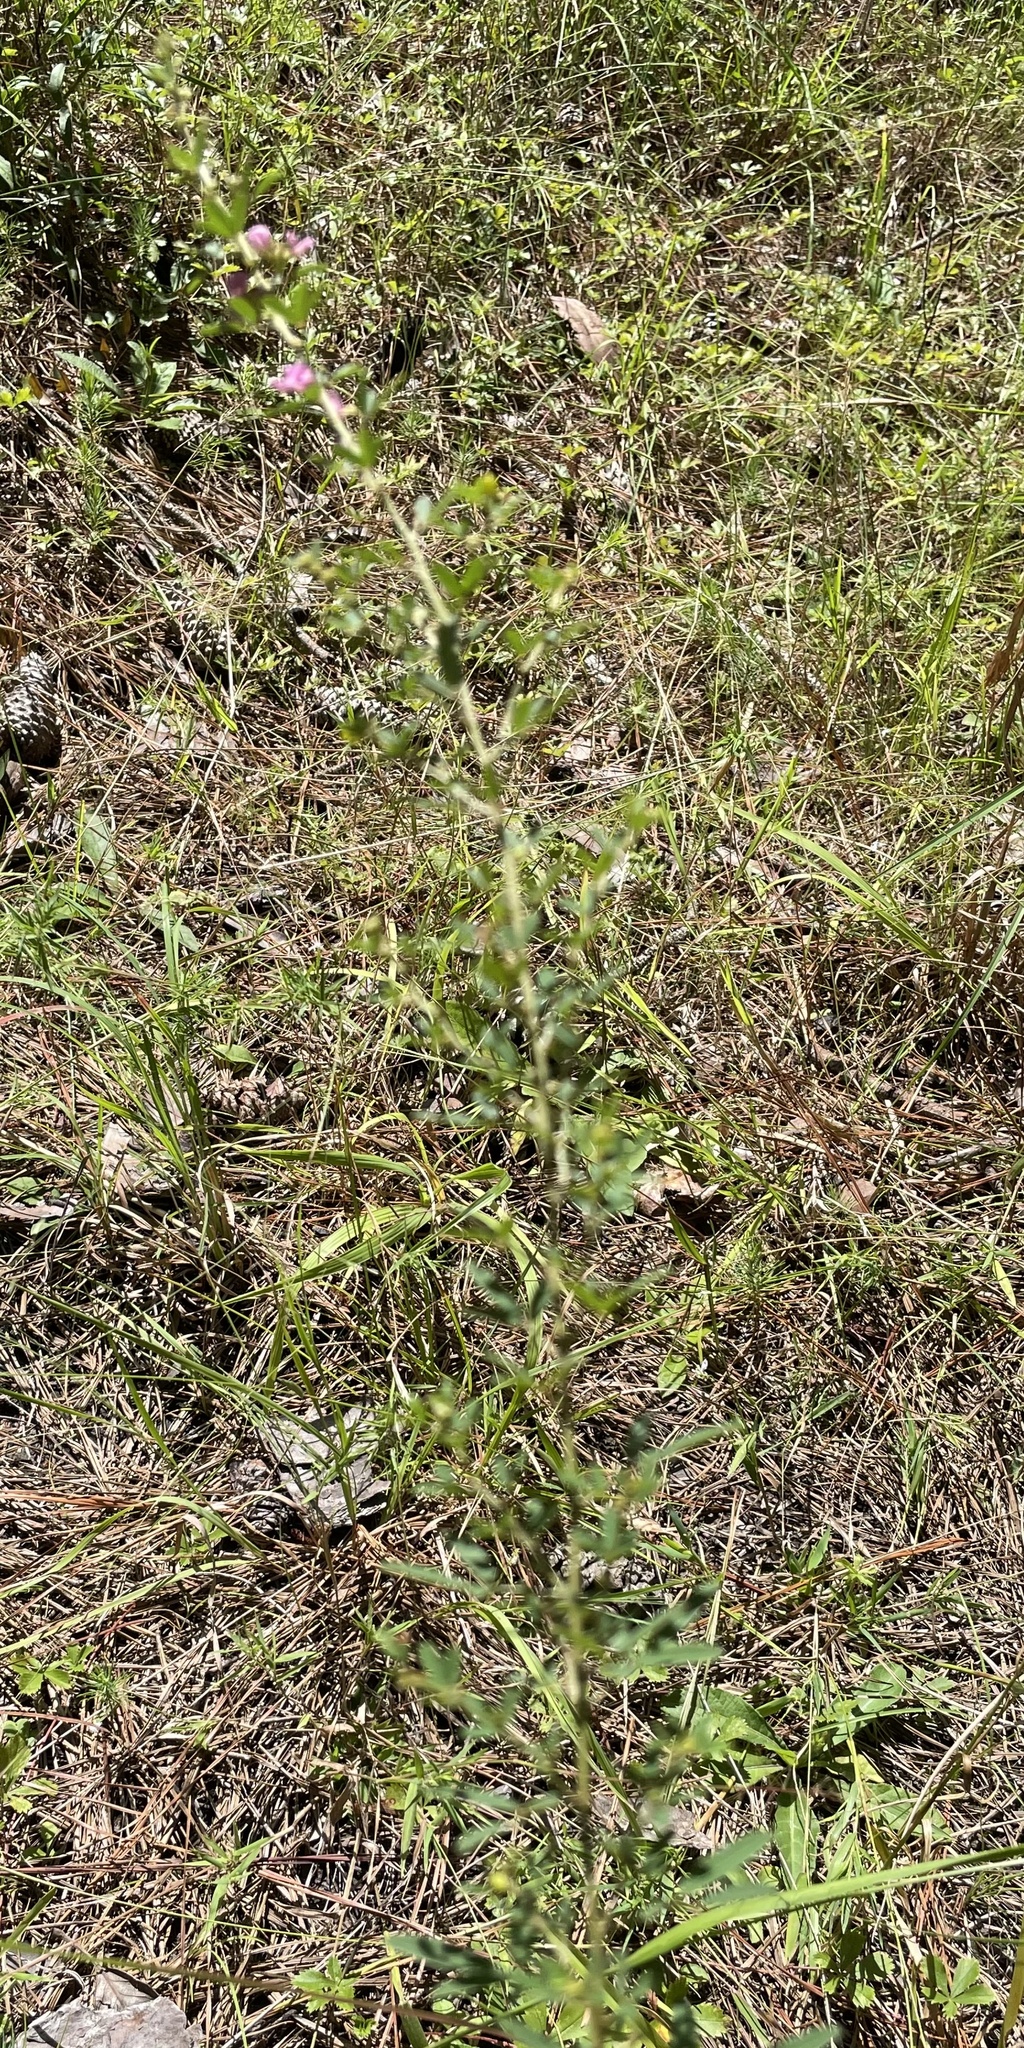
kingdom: Plantae
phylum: Tracheophyta
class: Magnoliopsida
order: Fabales
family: Fabaceae
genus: Lespedeza
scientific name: Lespedeza virginica
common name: Slender bush-clover
